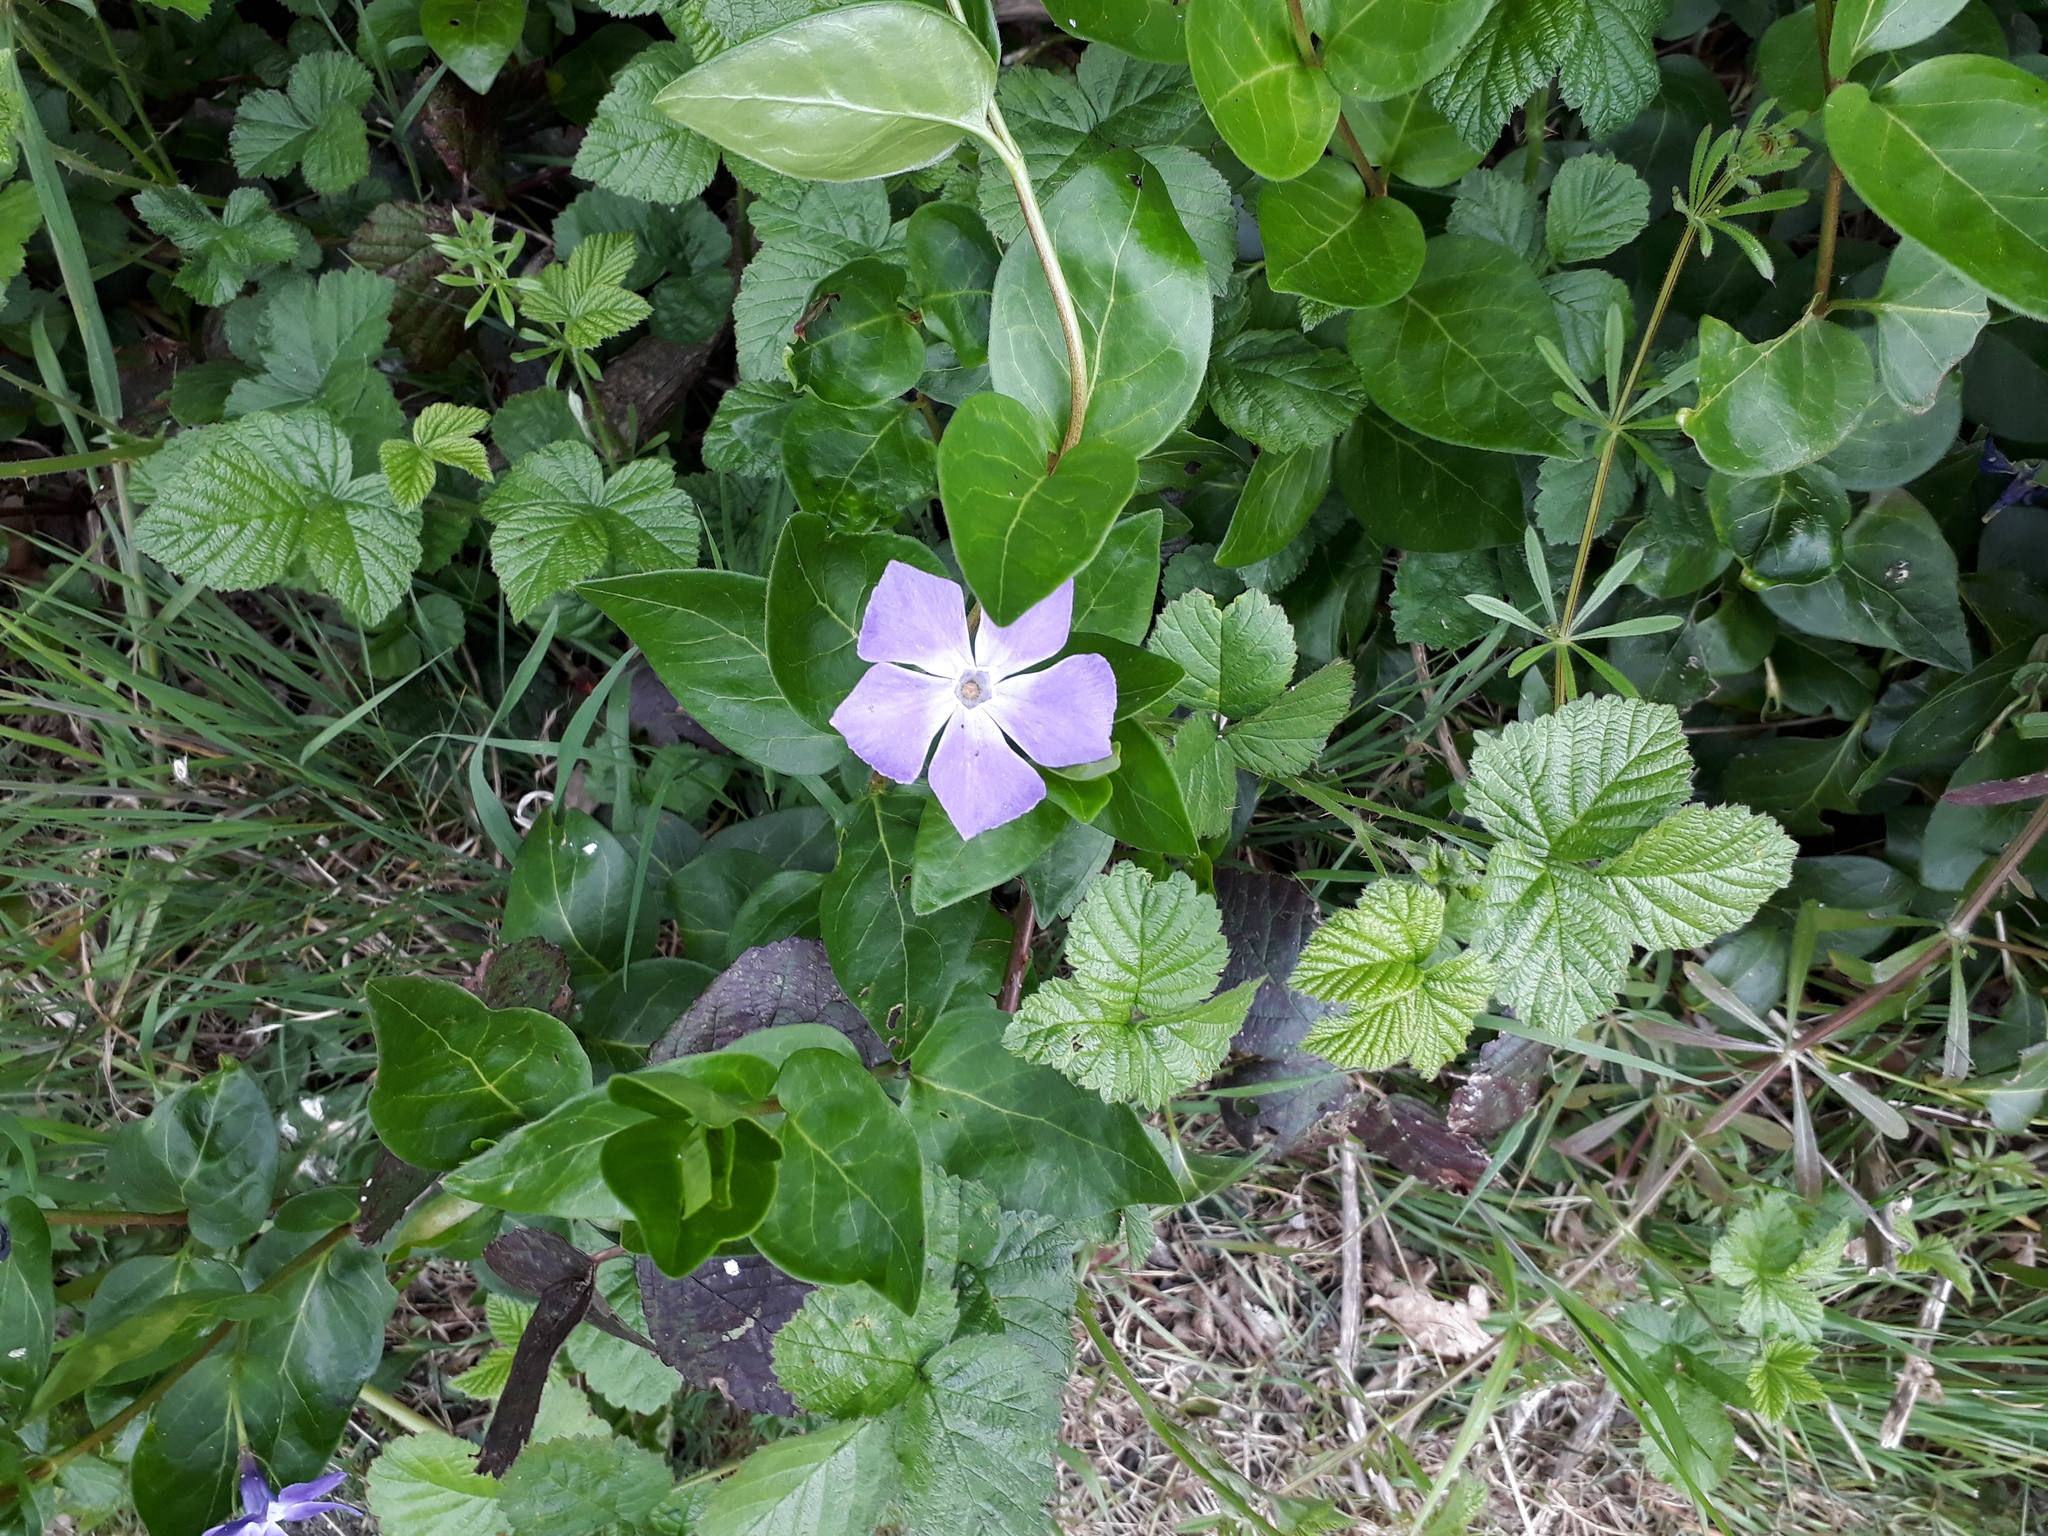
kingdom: Plantae
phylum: Tracheophyta
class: Magnoliopsida
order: Gentianales
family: Apocynaceae
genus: Vinca
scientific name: Vinca major
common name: Greater periwinkle
